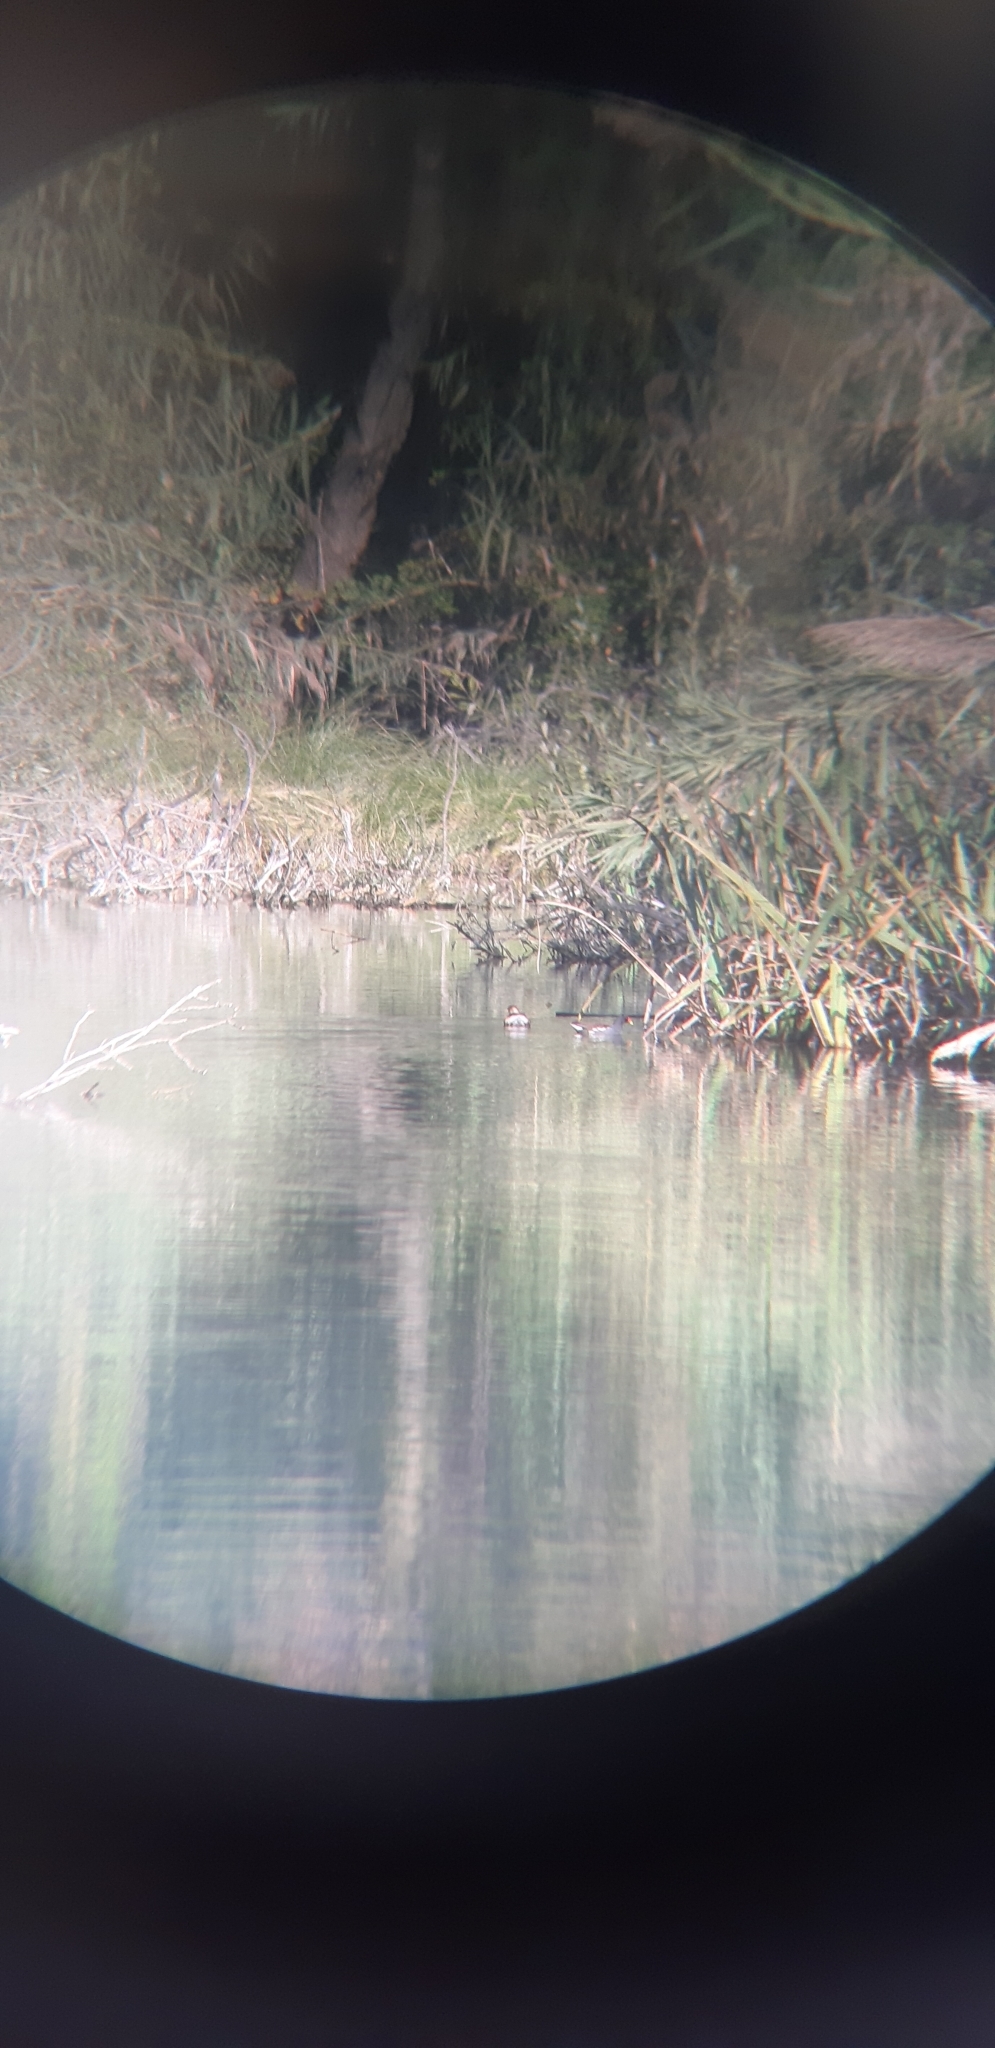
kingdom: Animalia
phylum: Chordata
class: Aves
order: Podicipediformes
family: Podicipedidae
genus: Tachybaptus
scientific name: Tachybaptus ruficollis
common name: Little grebe
